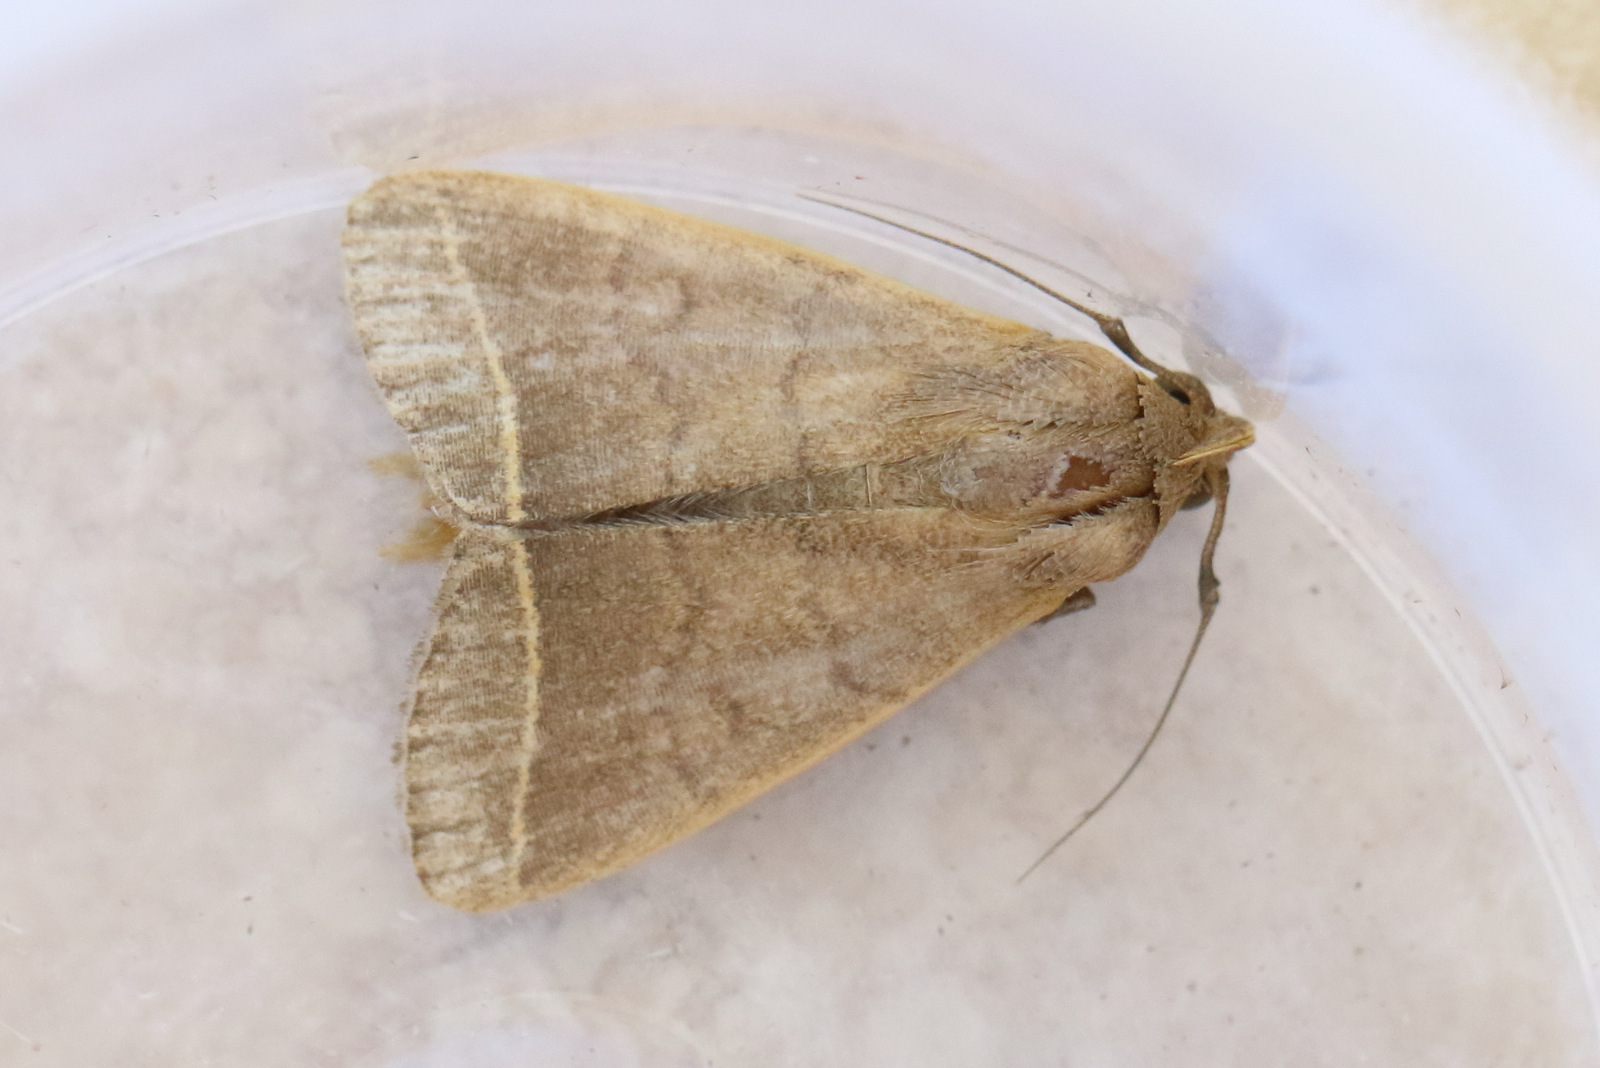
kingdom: Animalia
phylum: Arthropoda
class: Insecta
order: Lepidoptera
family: Erebidae
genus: Simplicia
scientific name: Simplicia cornicalis
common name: Tiki hut litter moth
